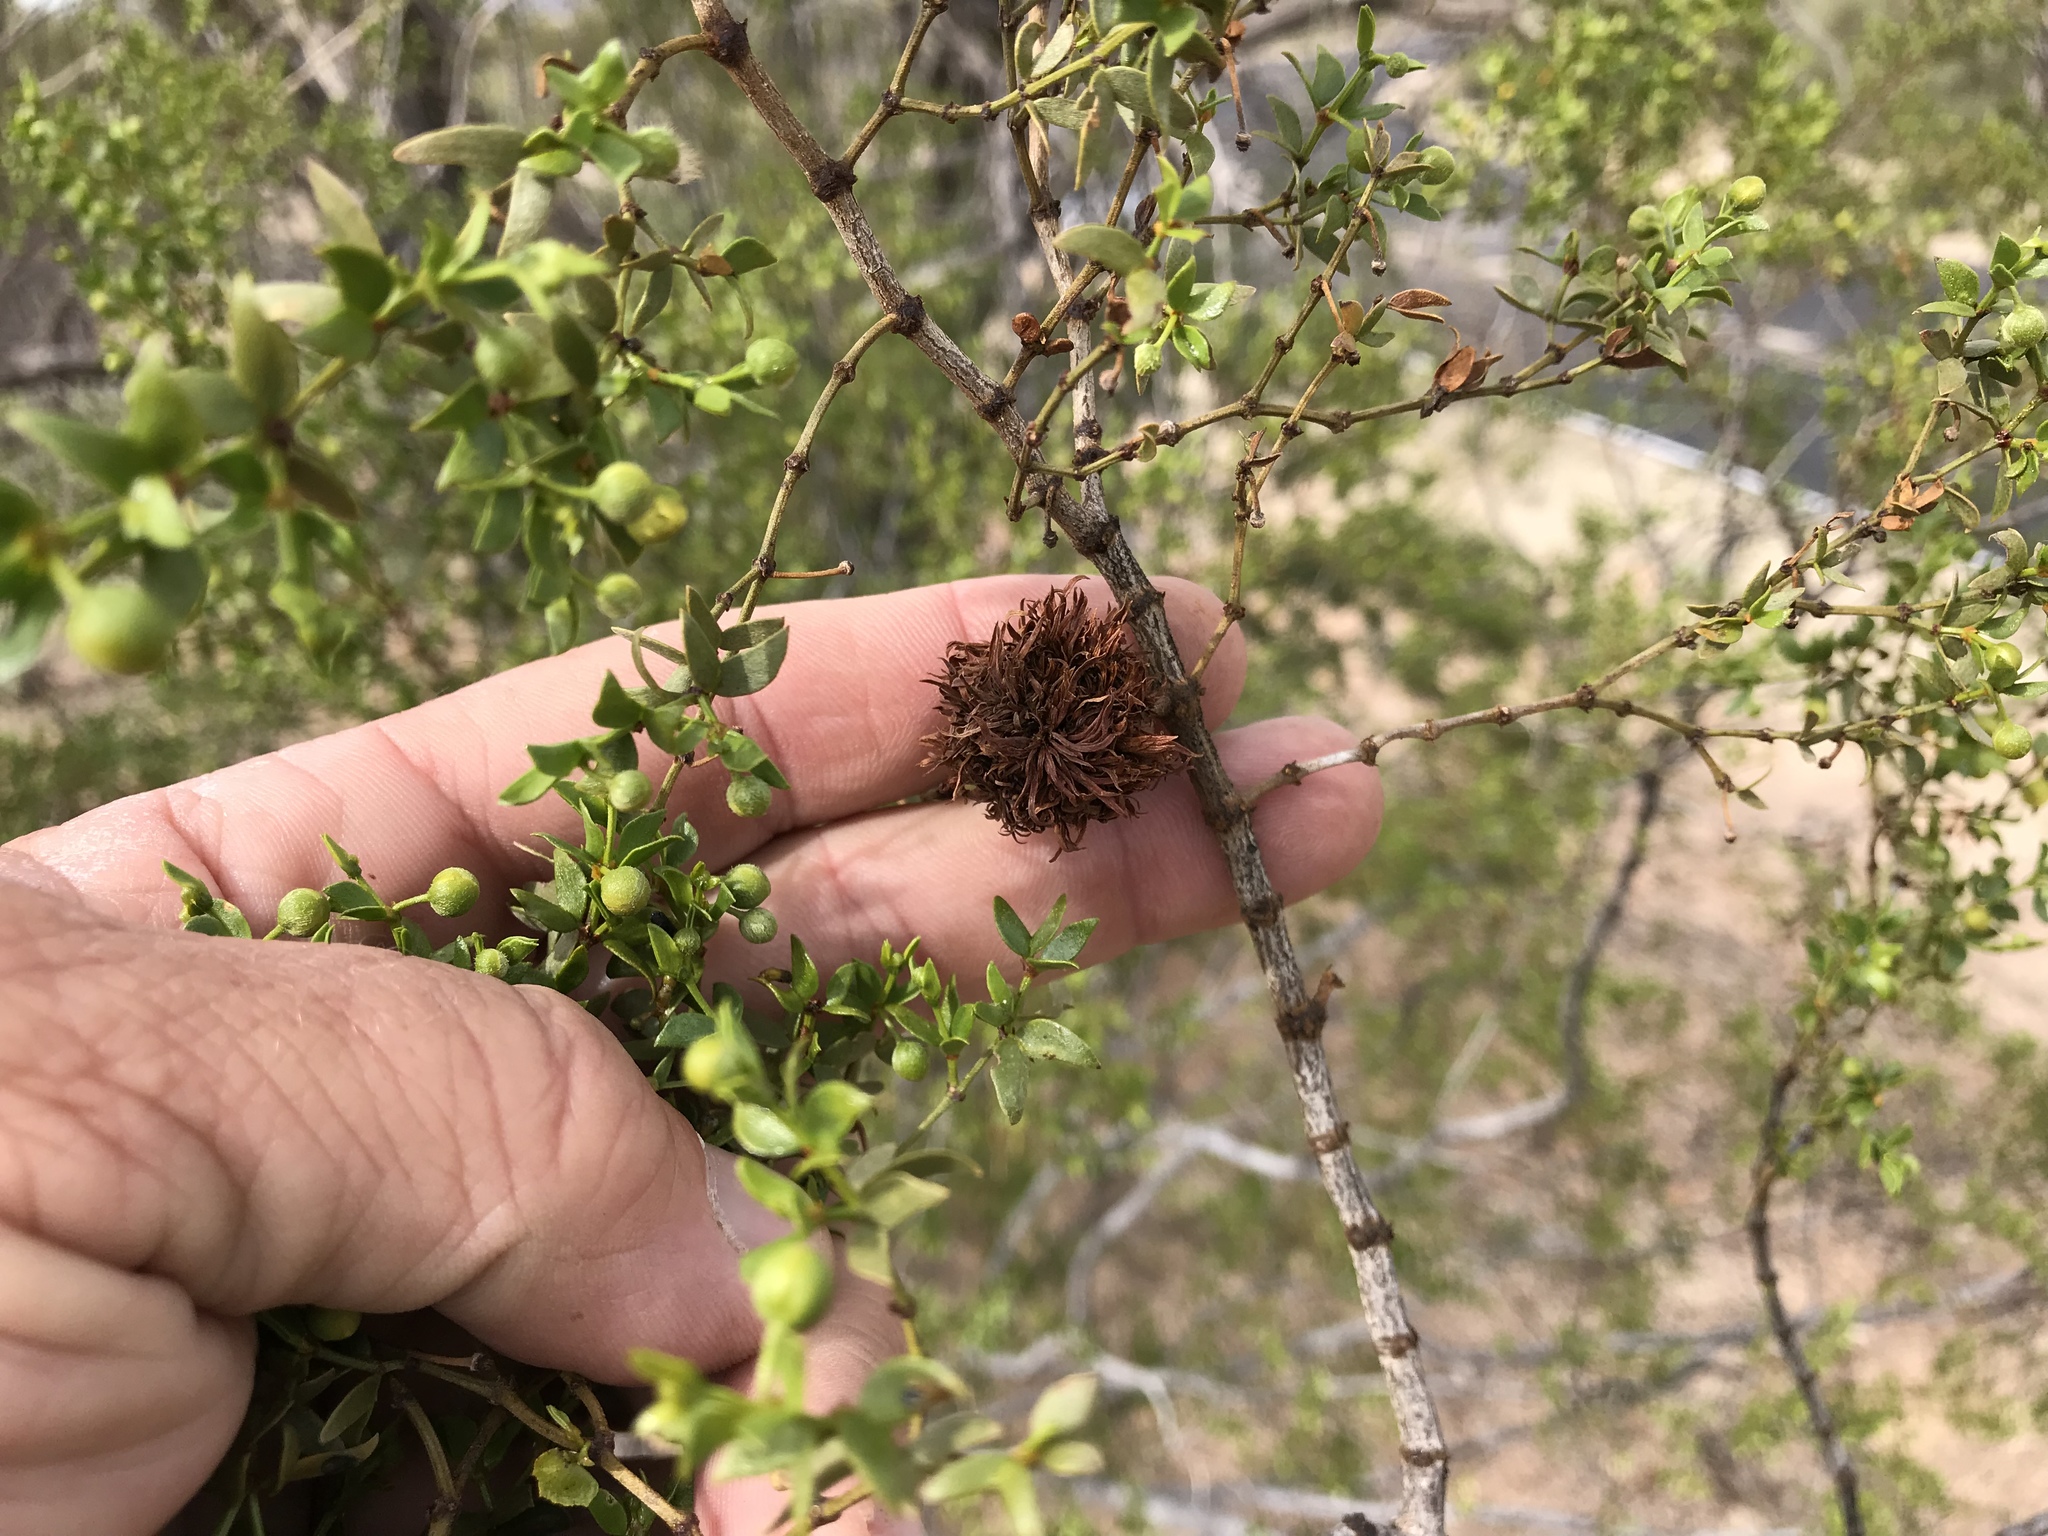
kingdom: Animalia
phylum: Arthropoda
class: Insecta
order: Diptera
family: Cecidomyiidae
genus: Asphondylia
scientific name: Asphondylia auripila
